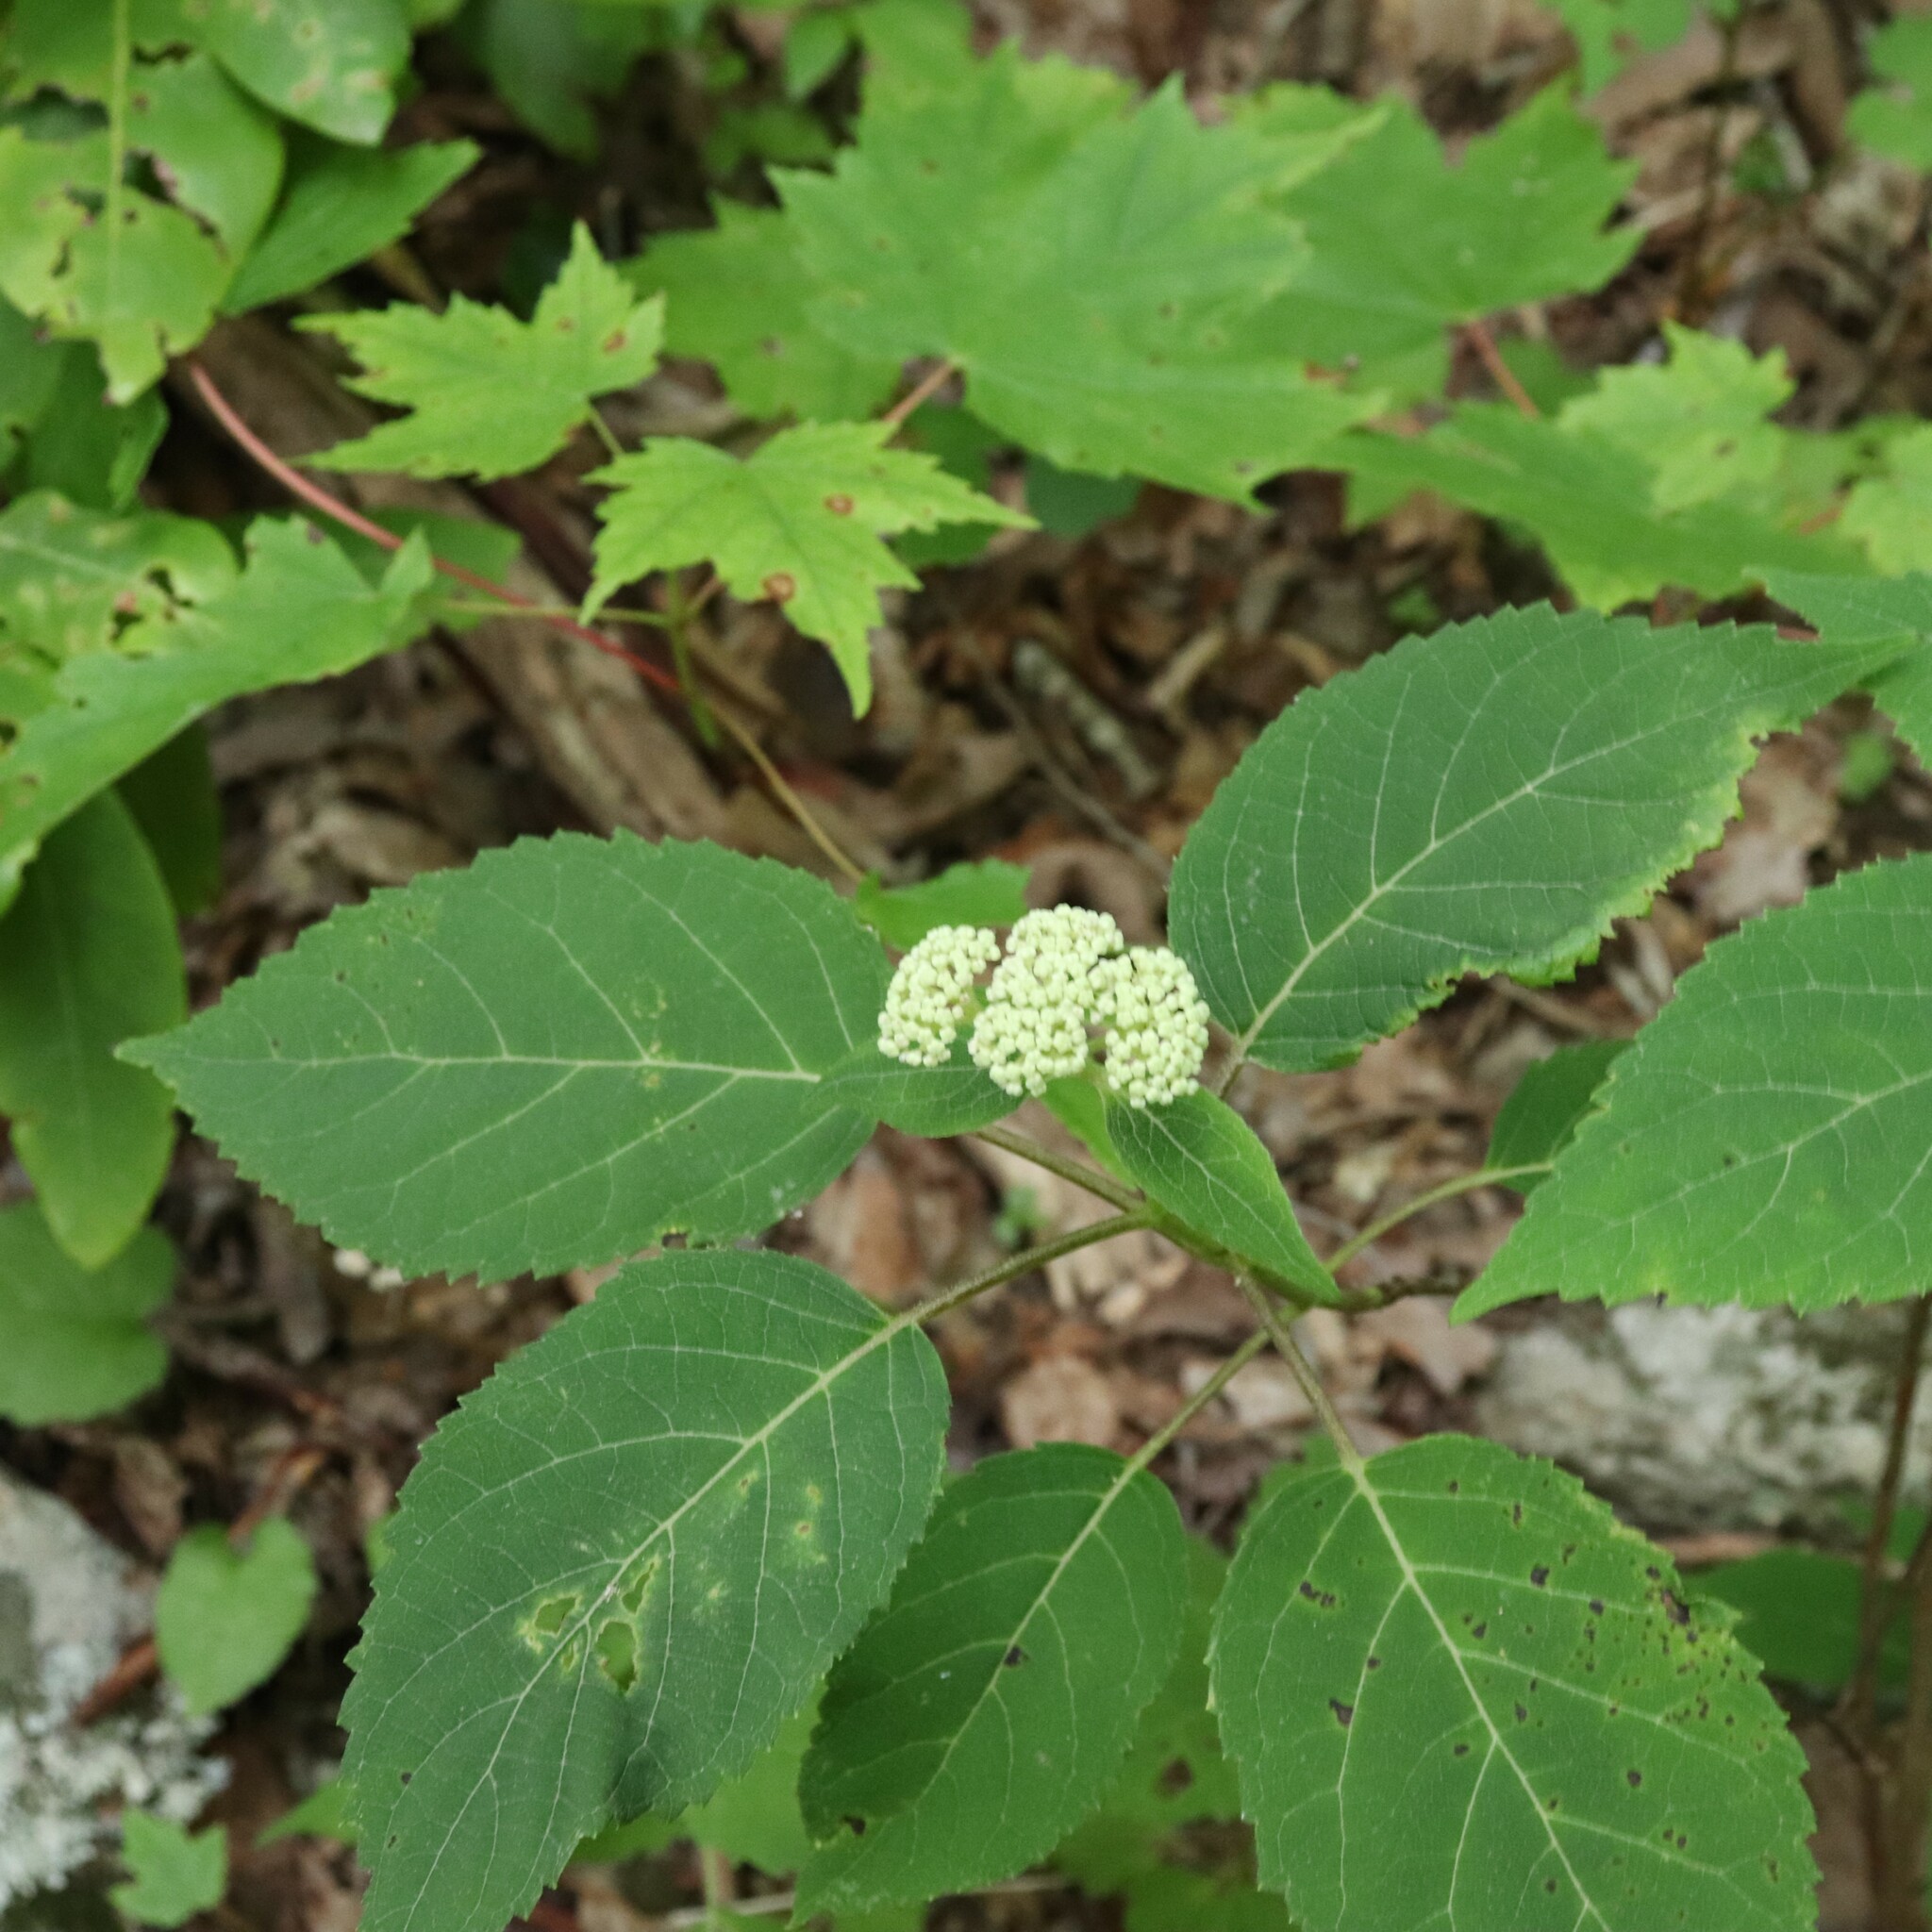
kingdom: Plantae
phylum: Tracheophyta
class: Magnoliopsida
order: Cornales
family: Hydrangeaceae
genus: Hydrangea
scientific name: Hydrangea arborescens
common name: Sevenbark
